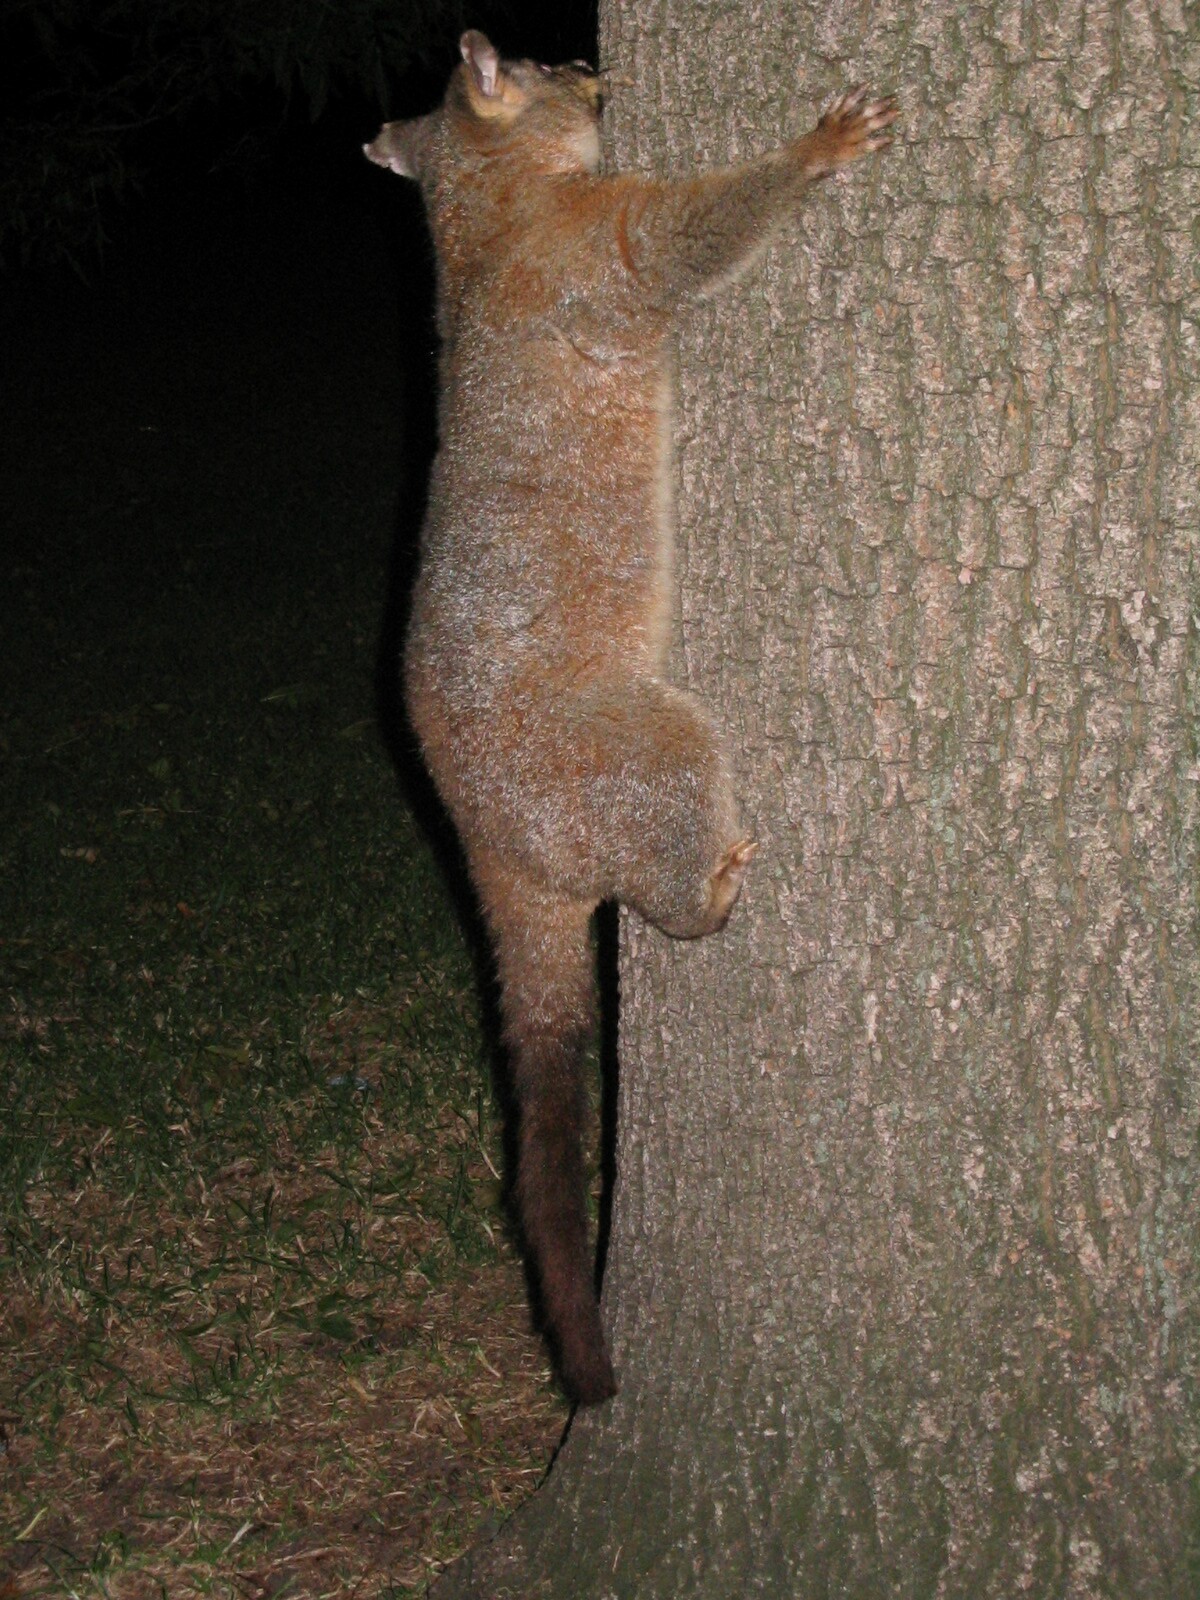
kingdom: Animalia
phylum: Chordata
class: Mammalia
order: Diprotodontia
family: Phalangeridae
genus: Trichosurus
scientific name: Trichosurus vulpecula
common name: Common brushtail
